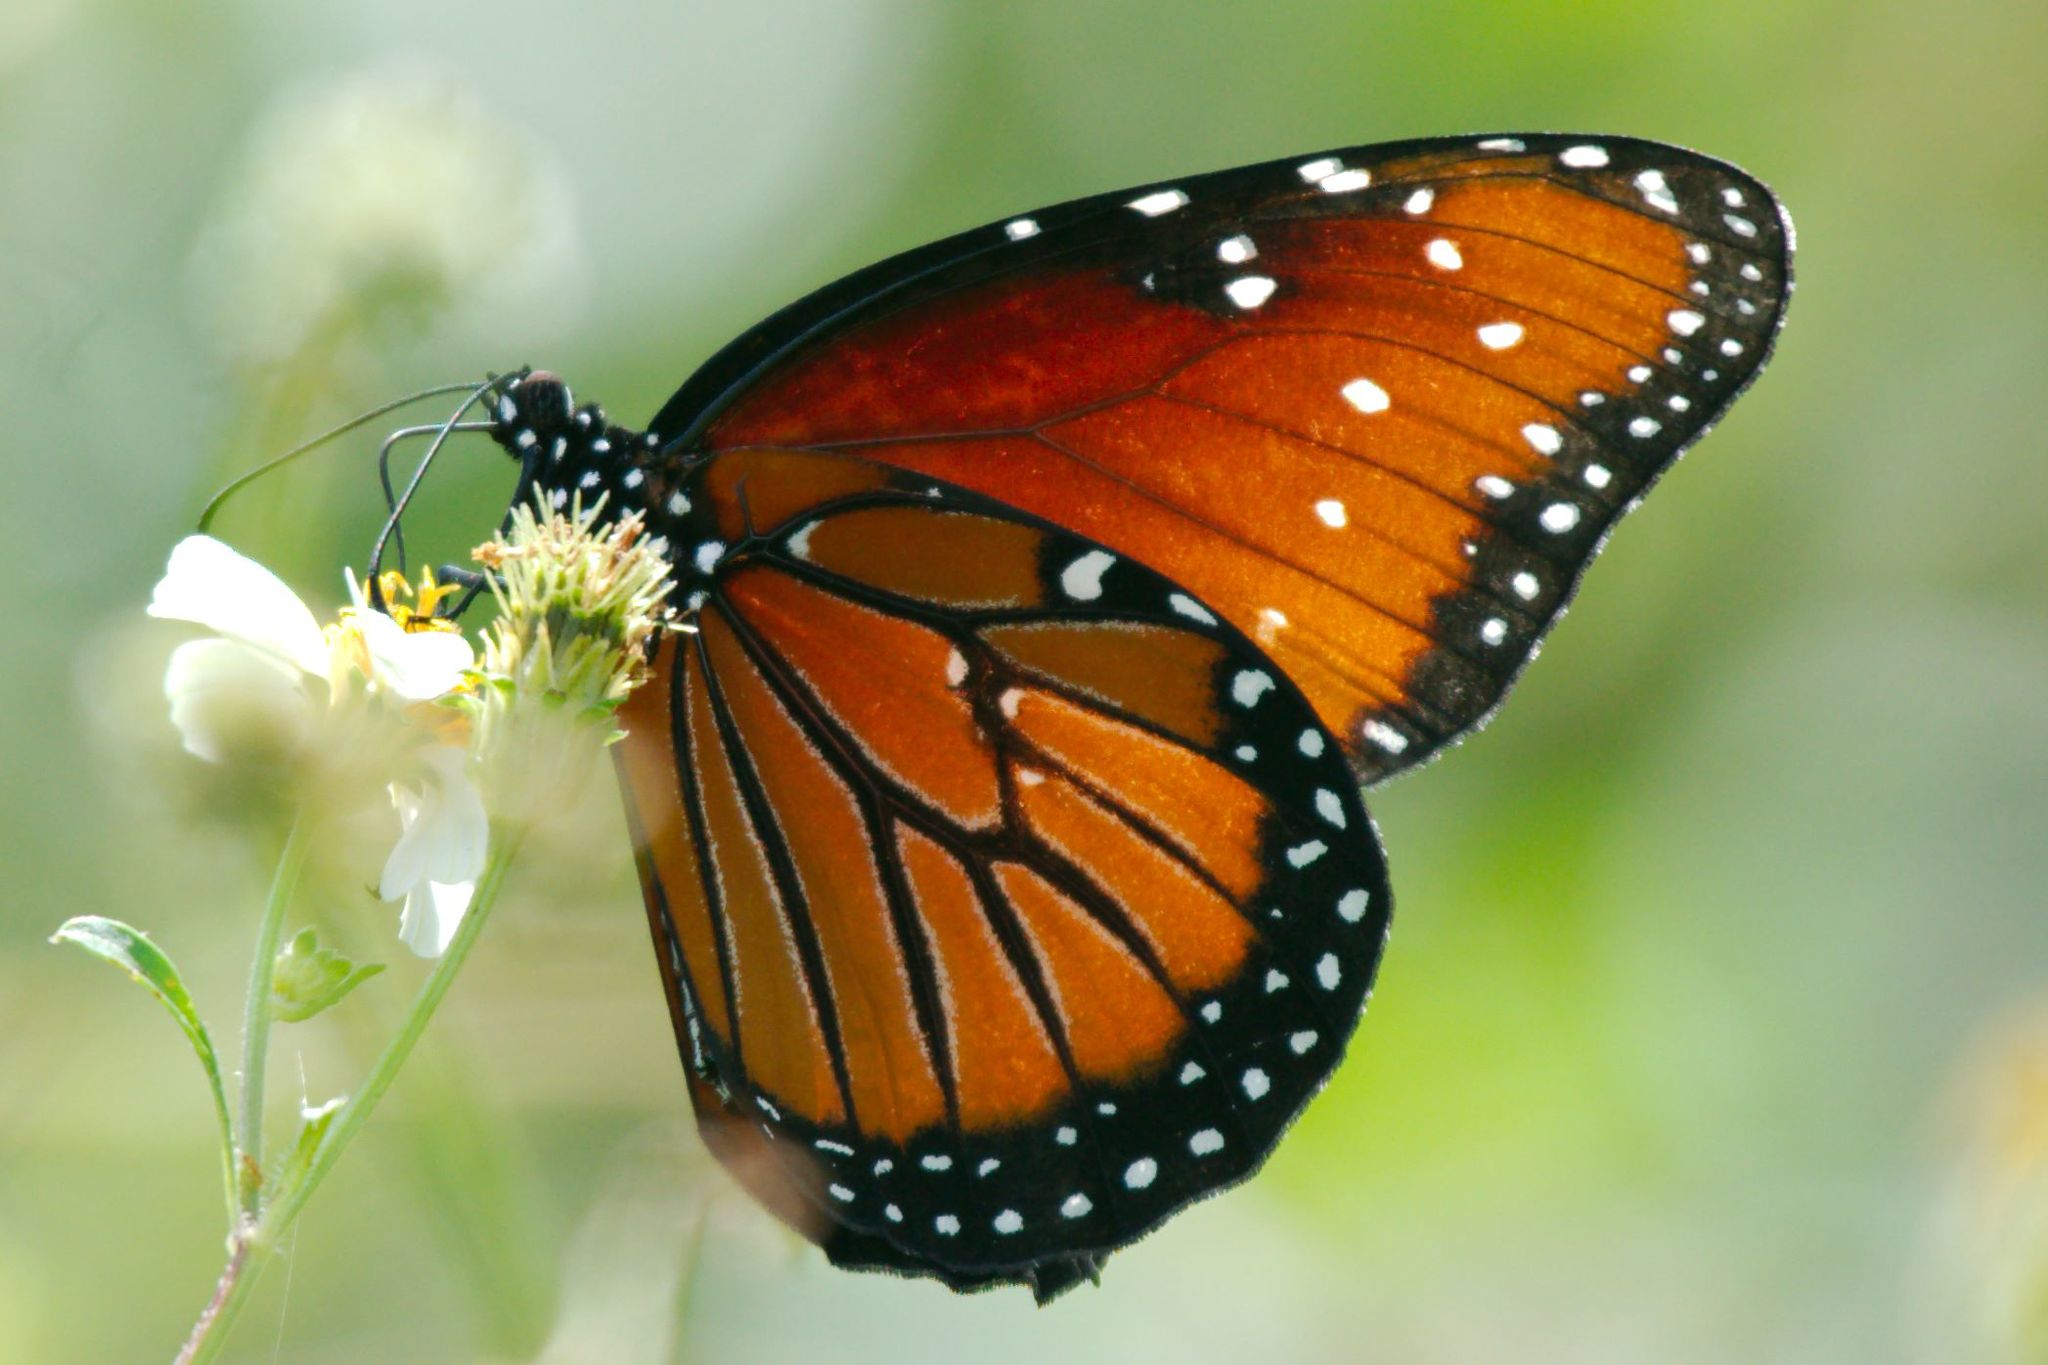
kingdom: Animalia
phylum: Arthropoda
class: Insecta
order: Lepidoptera
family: Nymphalidae
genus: Danaus
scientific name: Danaus gilippus
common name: Queen
